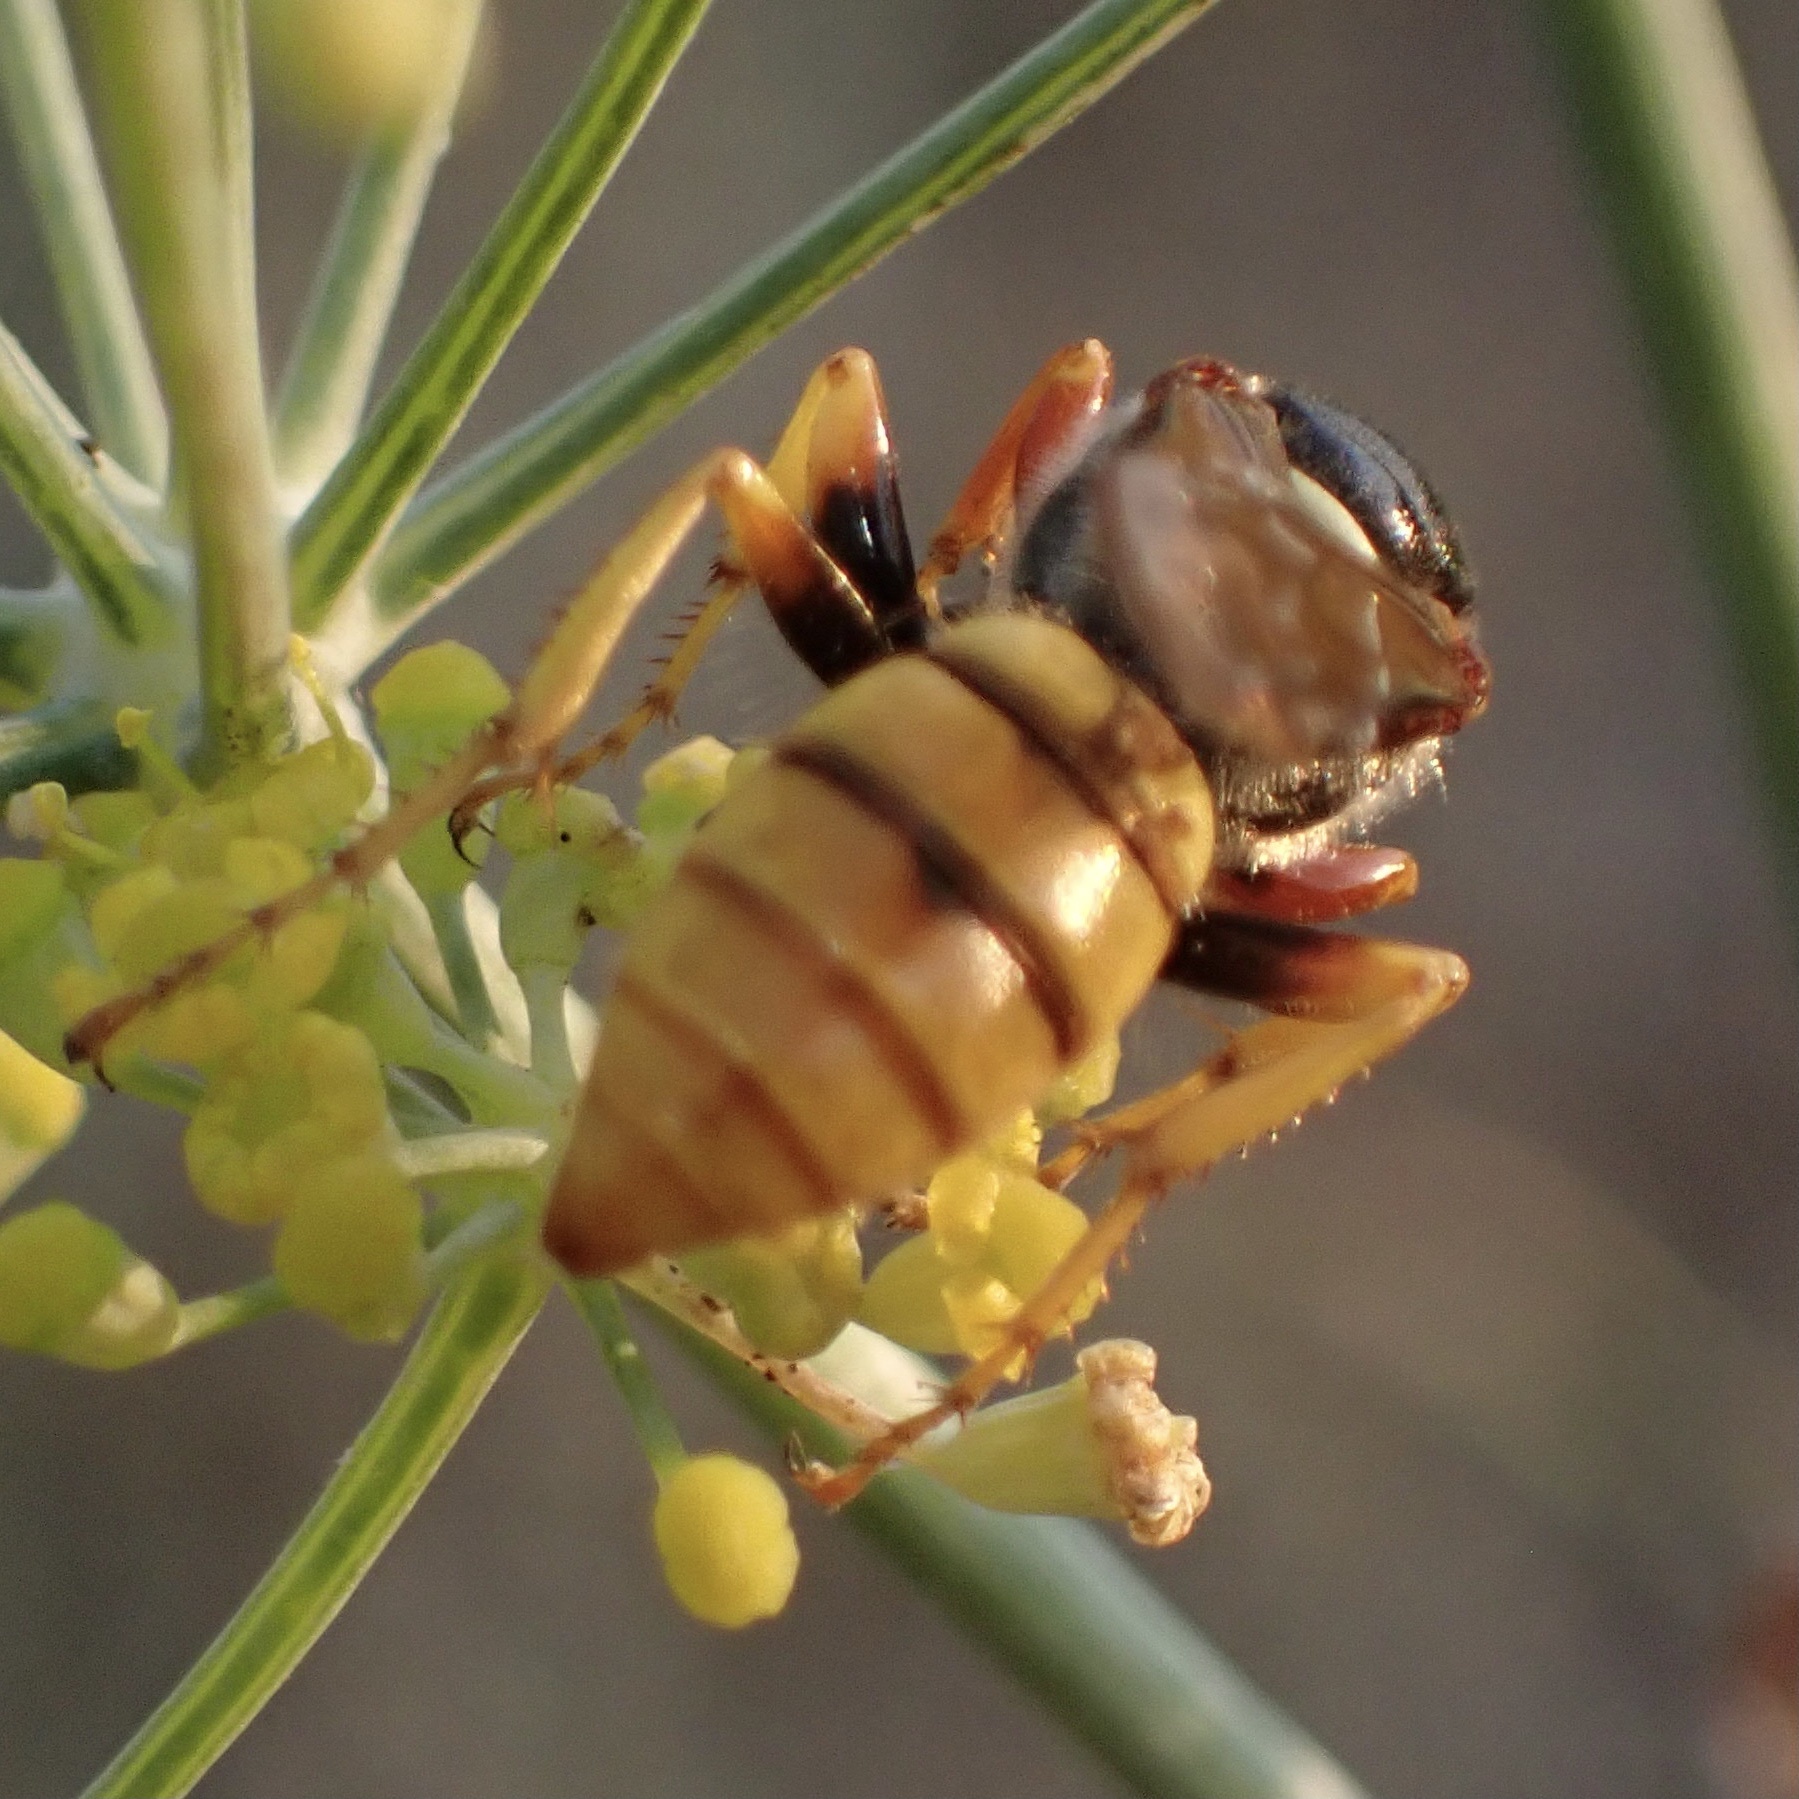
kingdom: Animalia
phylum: Arthropoda
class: Insecta
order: Hymenoptera
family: Crabronidae
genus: Philanthus
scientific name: Philanthus triangulum
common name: Bee wolf
